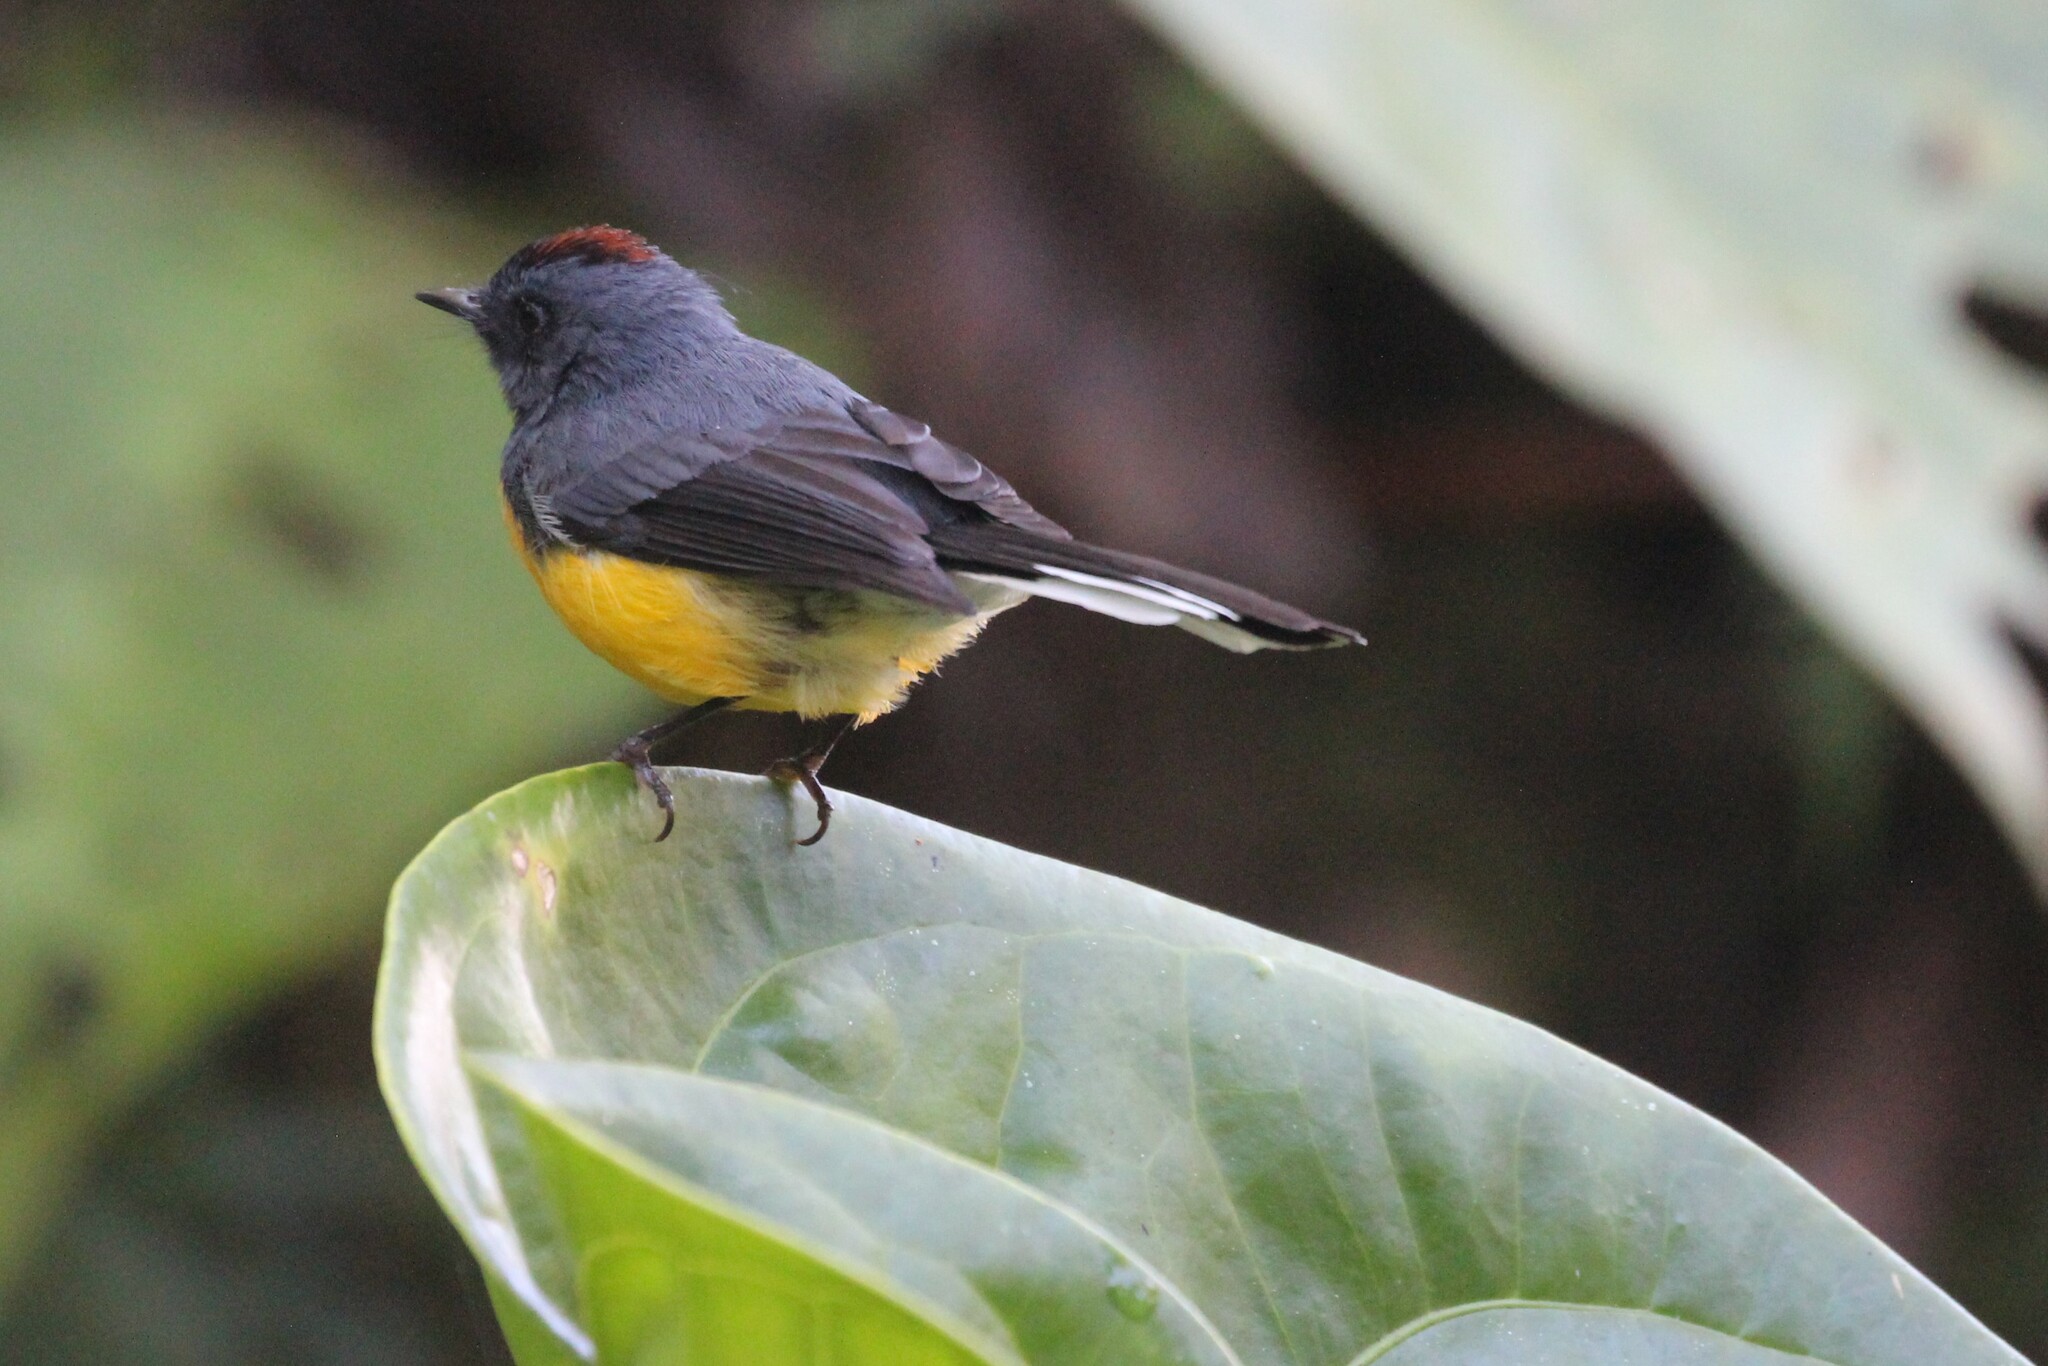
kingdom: Animalia
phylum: Chordata
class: Aves
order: Passeriformes
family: Parulidae
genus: Myioborus
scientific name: Myioborus miniatus
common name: Slate-throated redstart
